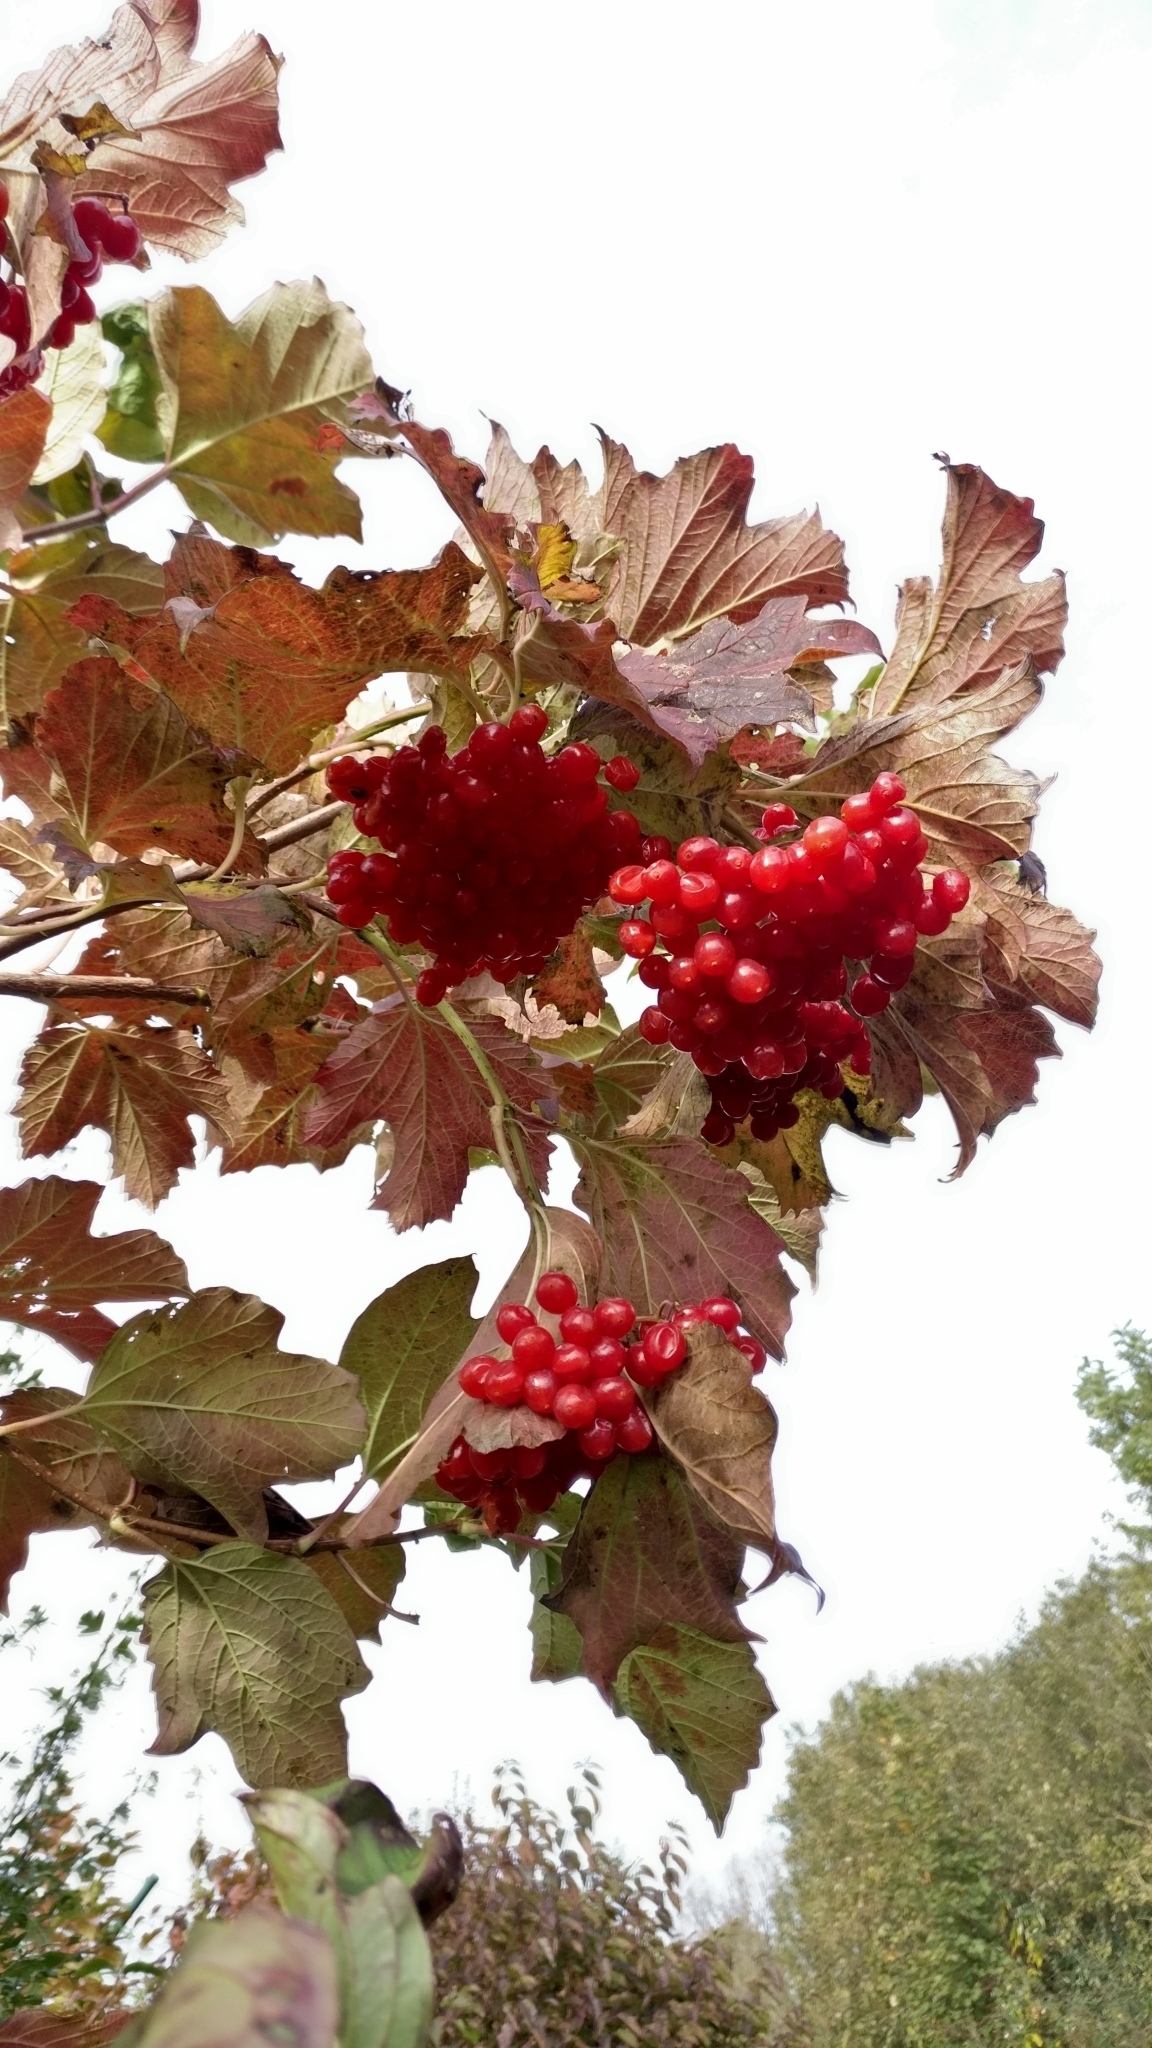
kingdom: Plantae
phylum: Tracheophyta
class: Magnoliopsida
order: Dipsacales
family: Viburnaceae
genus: Viburnum
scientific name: Viburnum opulus
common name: Guelder-rose
